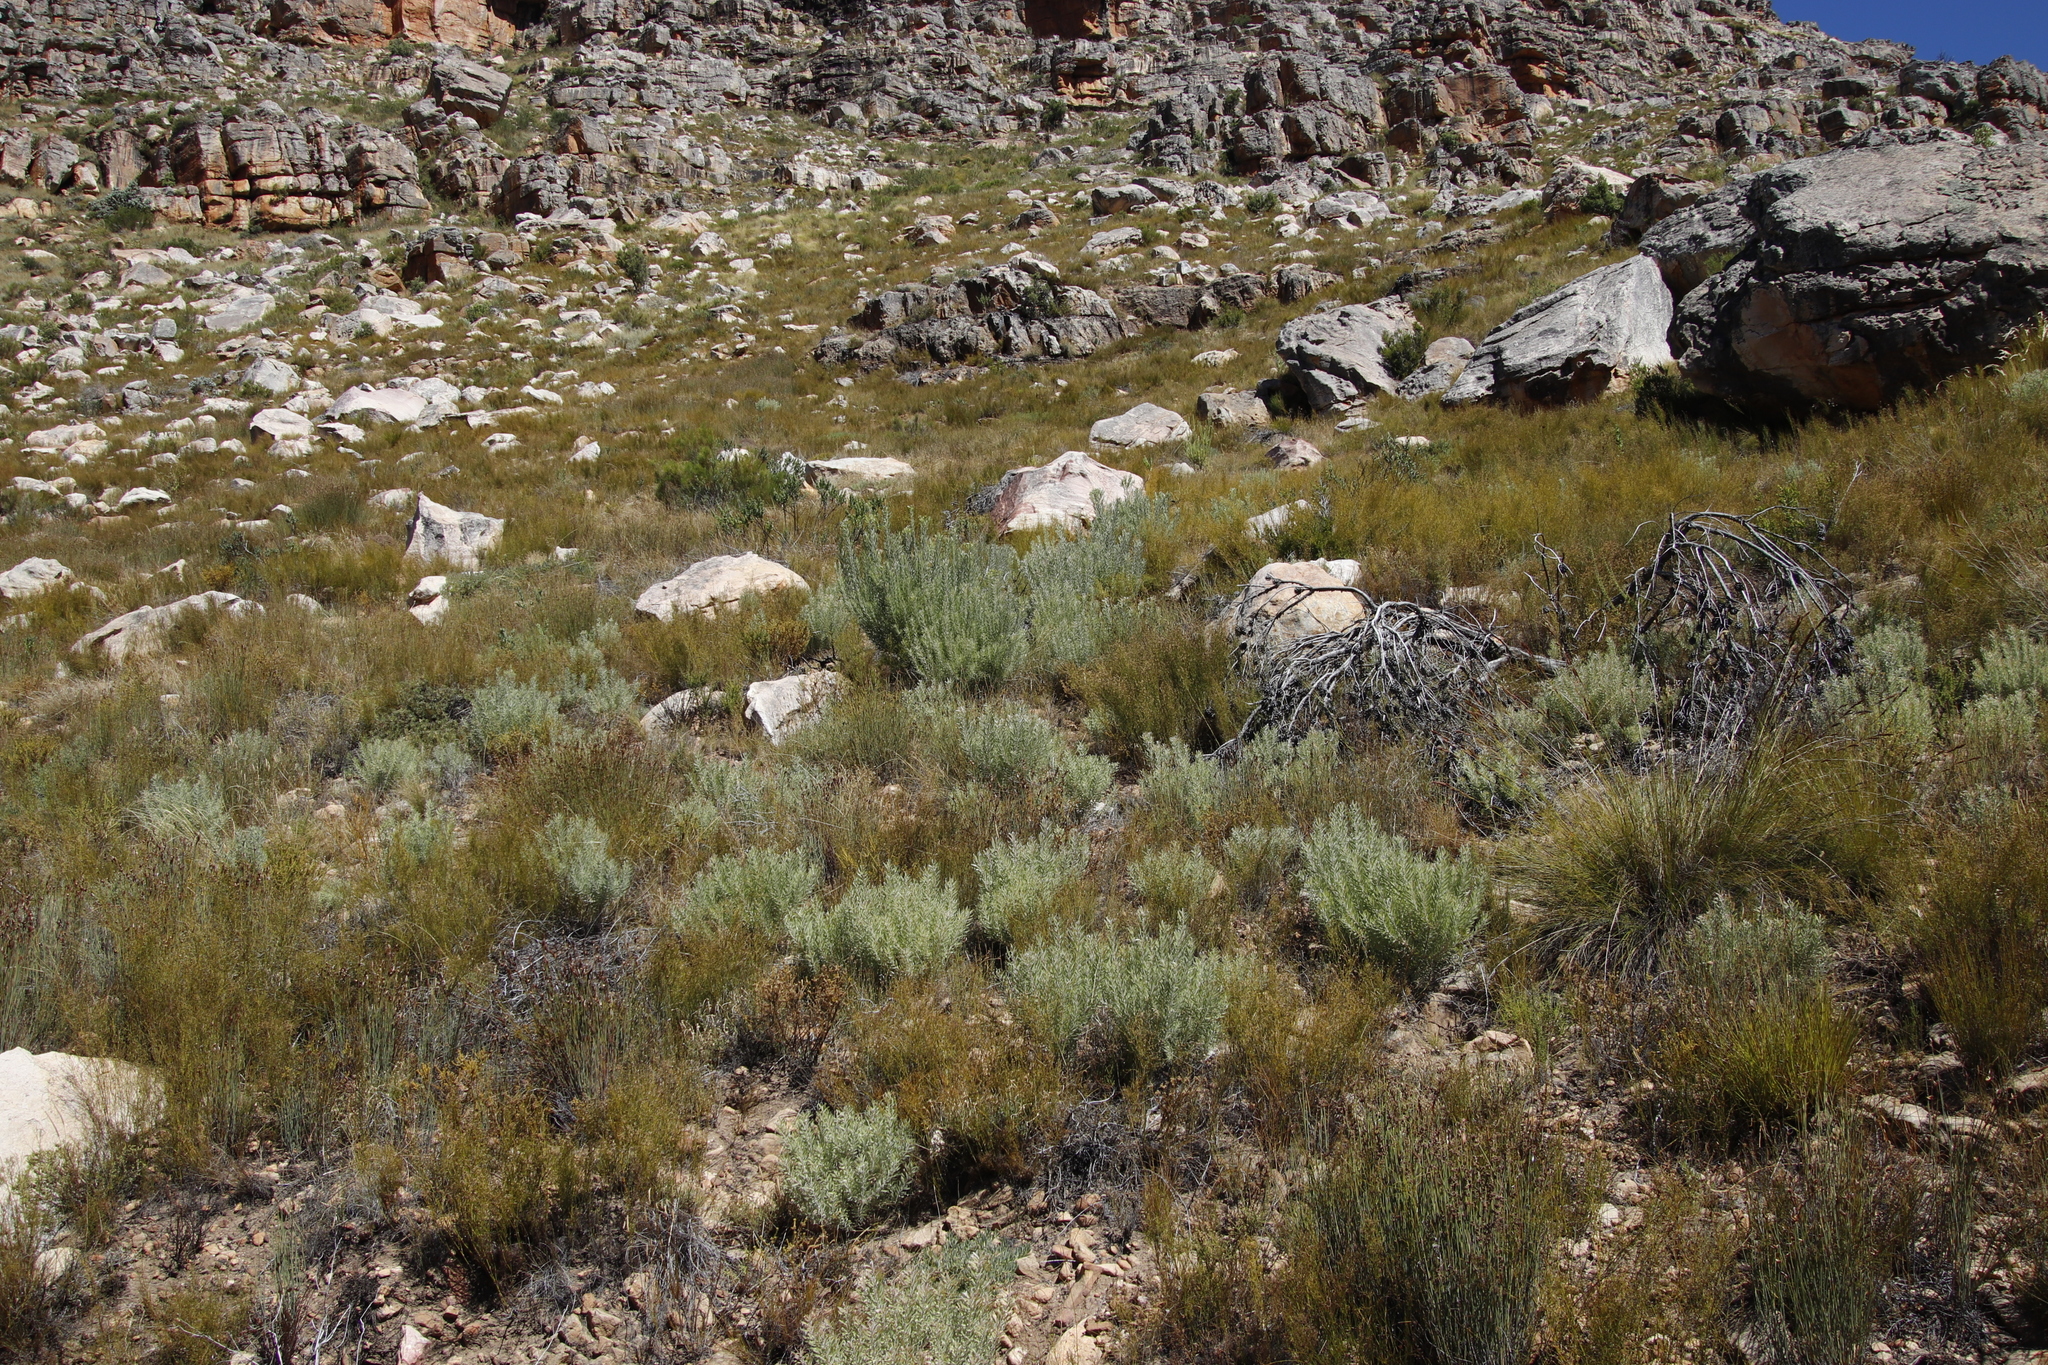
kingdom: Plantae
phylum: Tracheophyta
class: Magnoliopsida
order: Proteales
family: Proteaceae
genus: Leucadendron
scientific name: Leucadendron rubrum
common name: Spinning top
